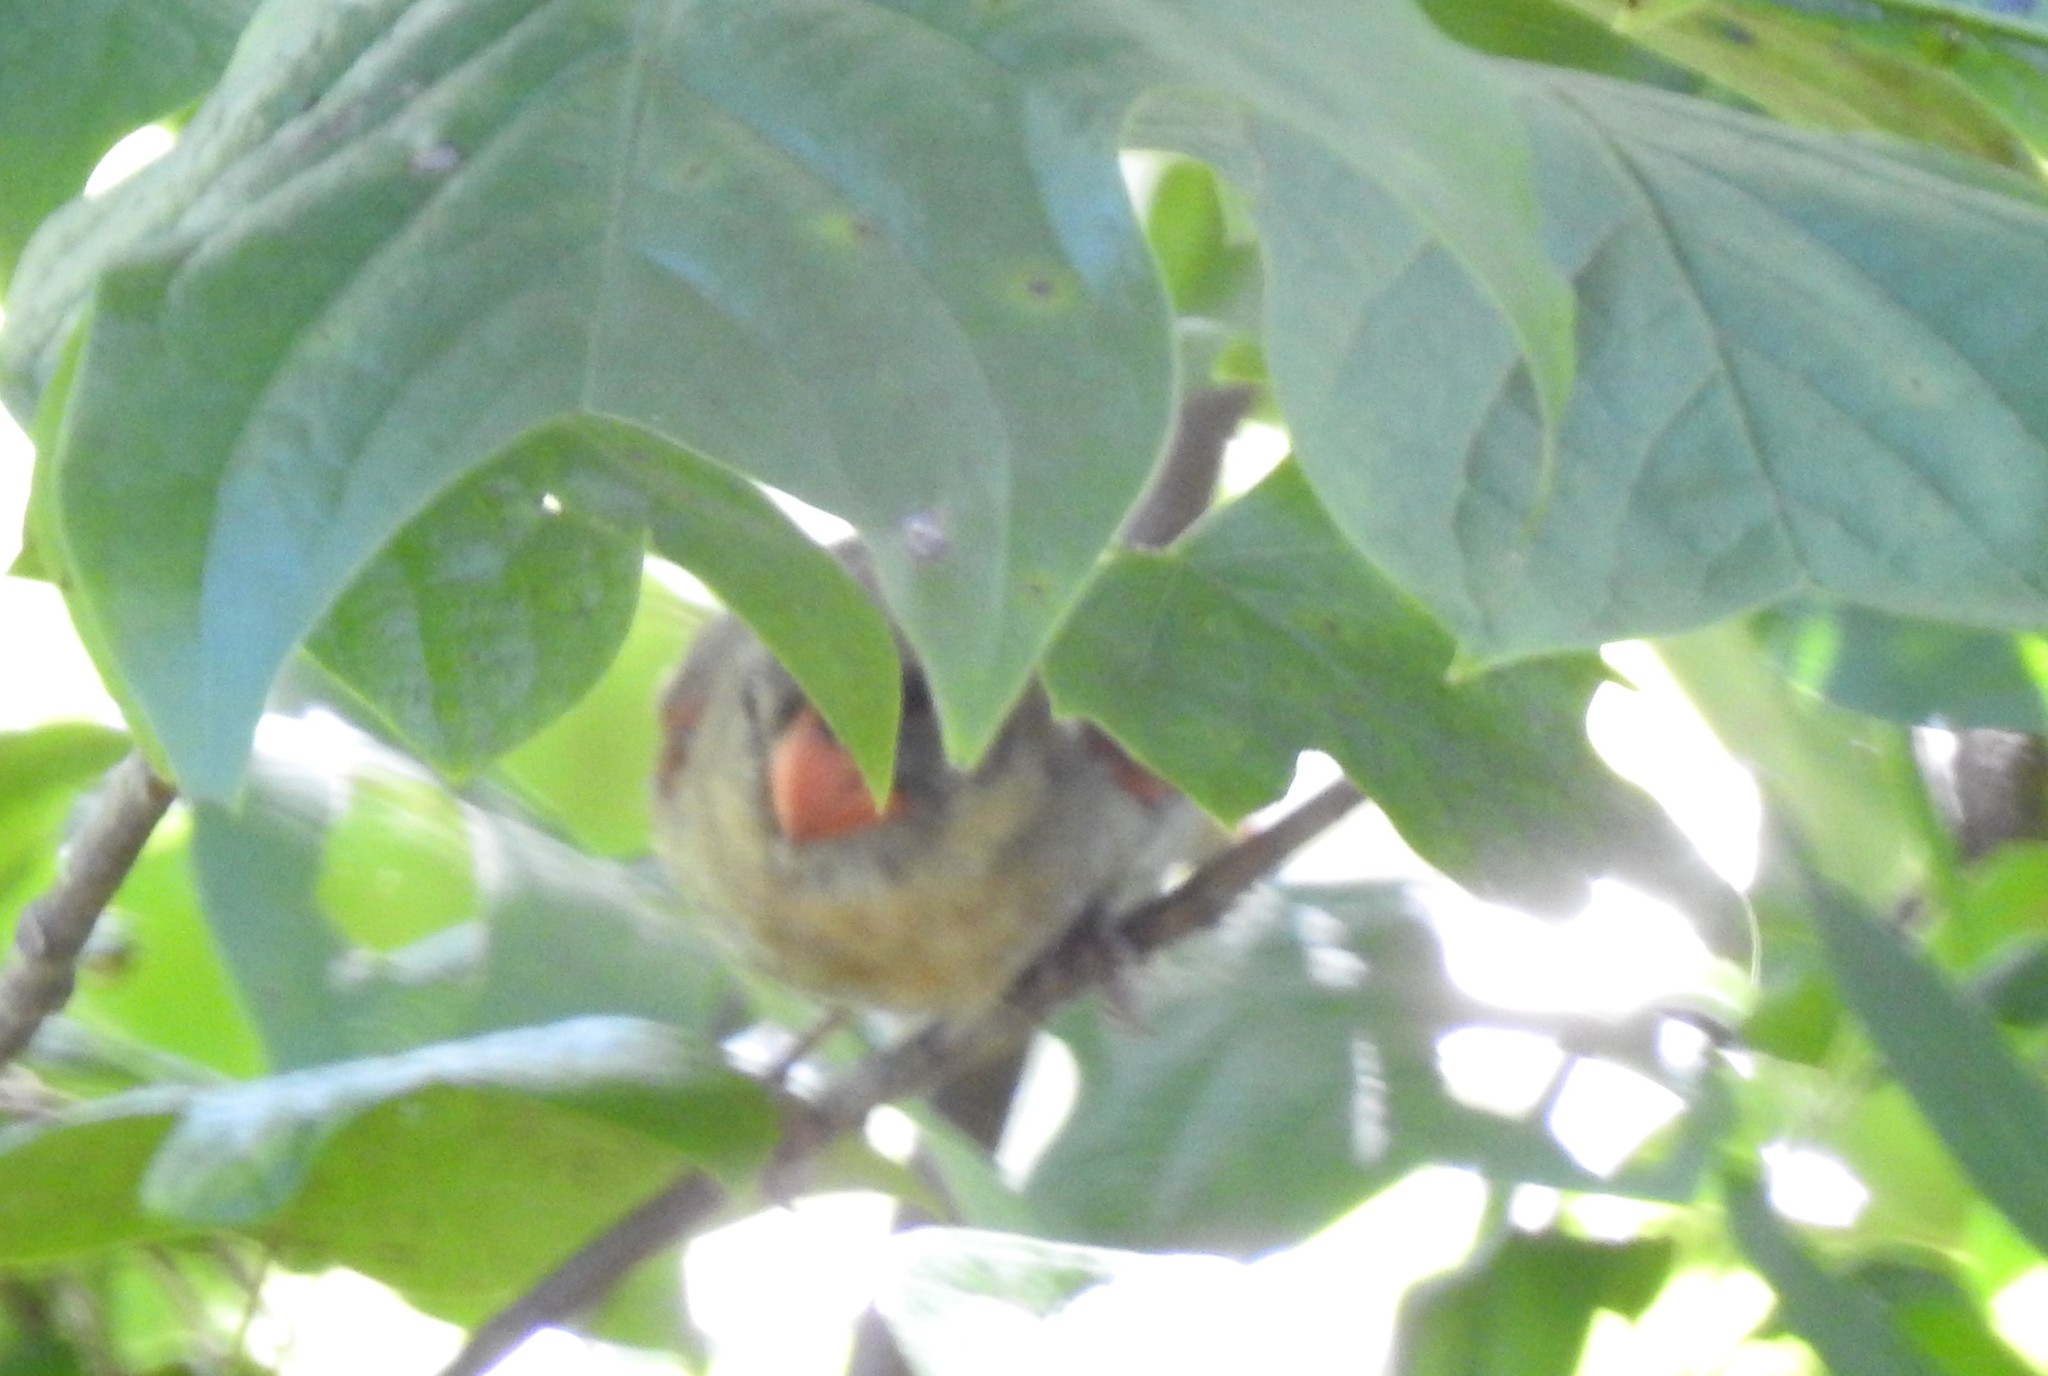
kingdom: Animalia
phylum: Chordata
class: Aves
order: Passeriformes
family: Cardinalidae
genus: Cardinalis
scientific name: Cardinalis cardinalis
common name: Northern cardinal
